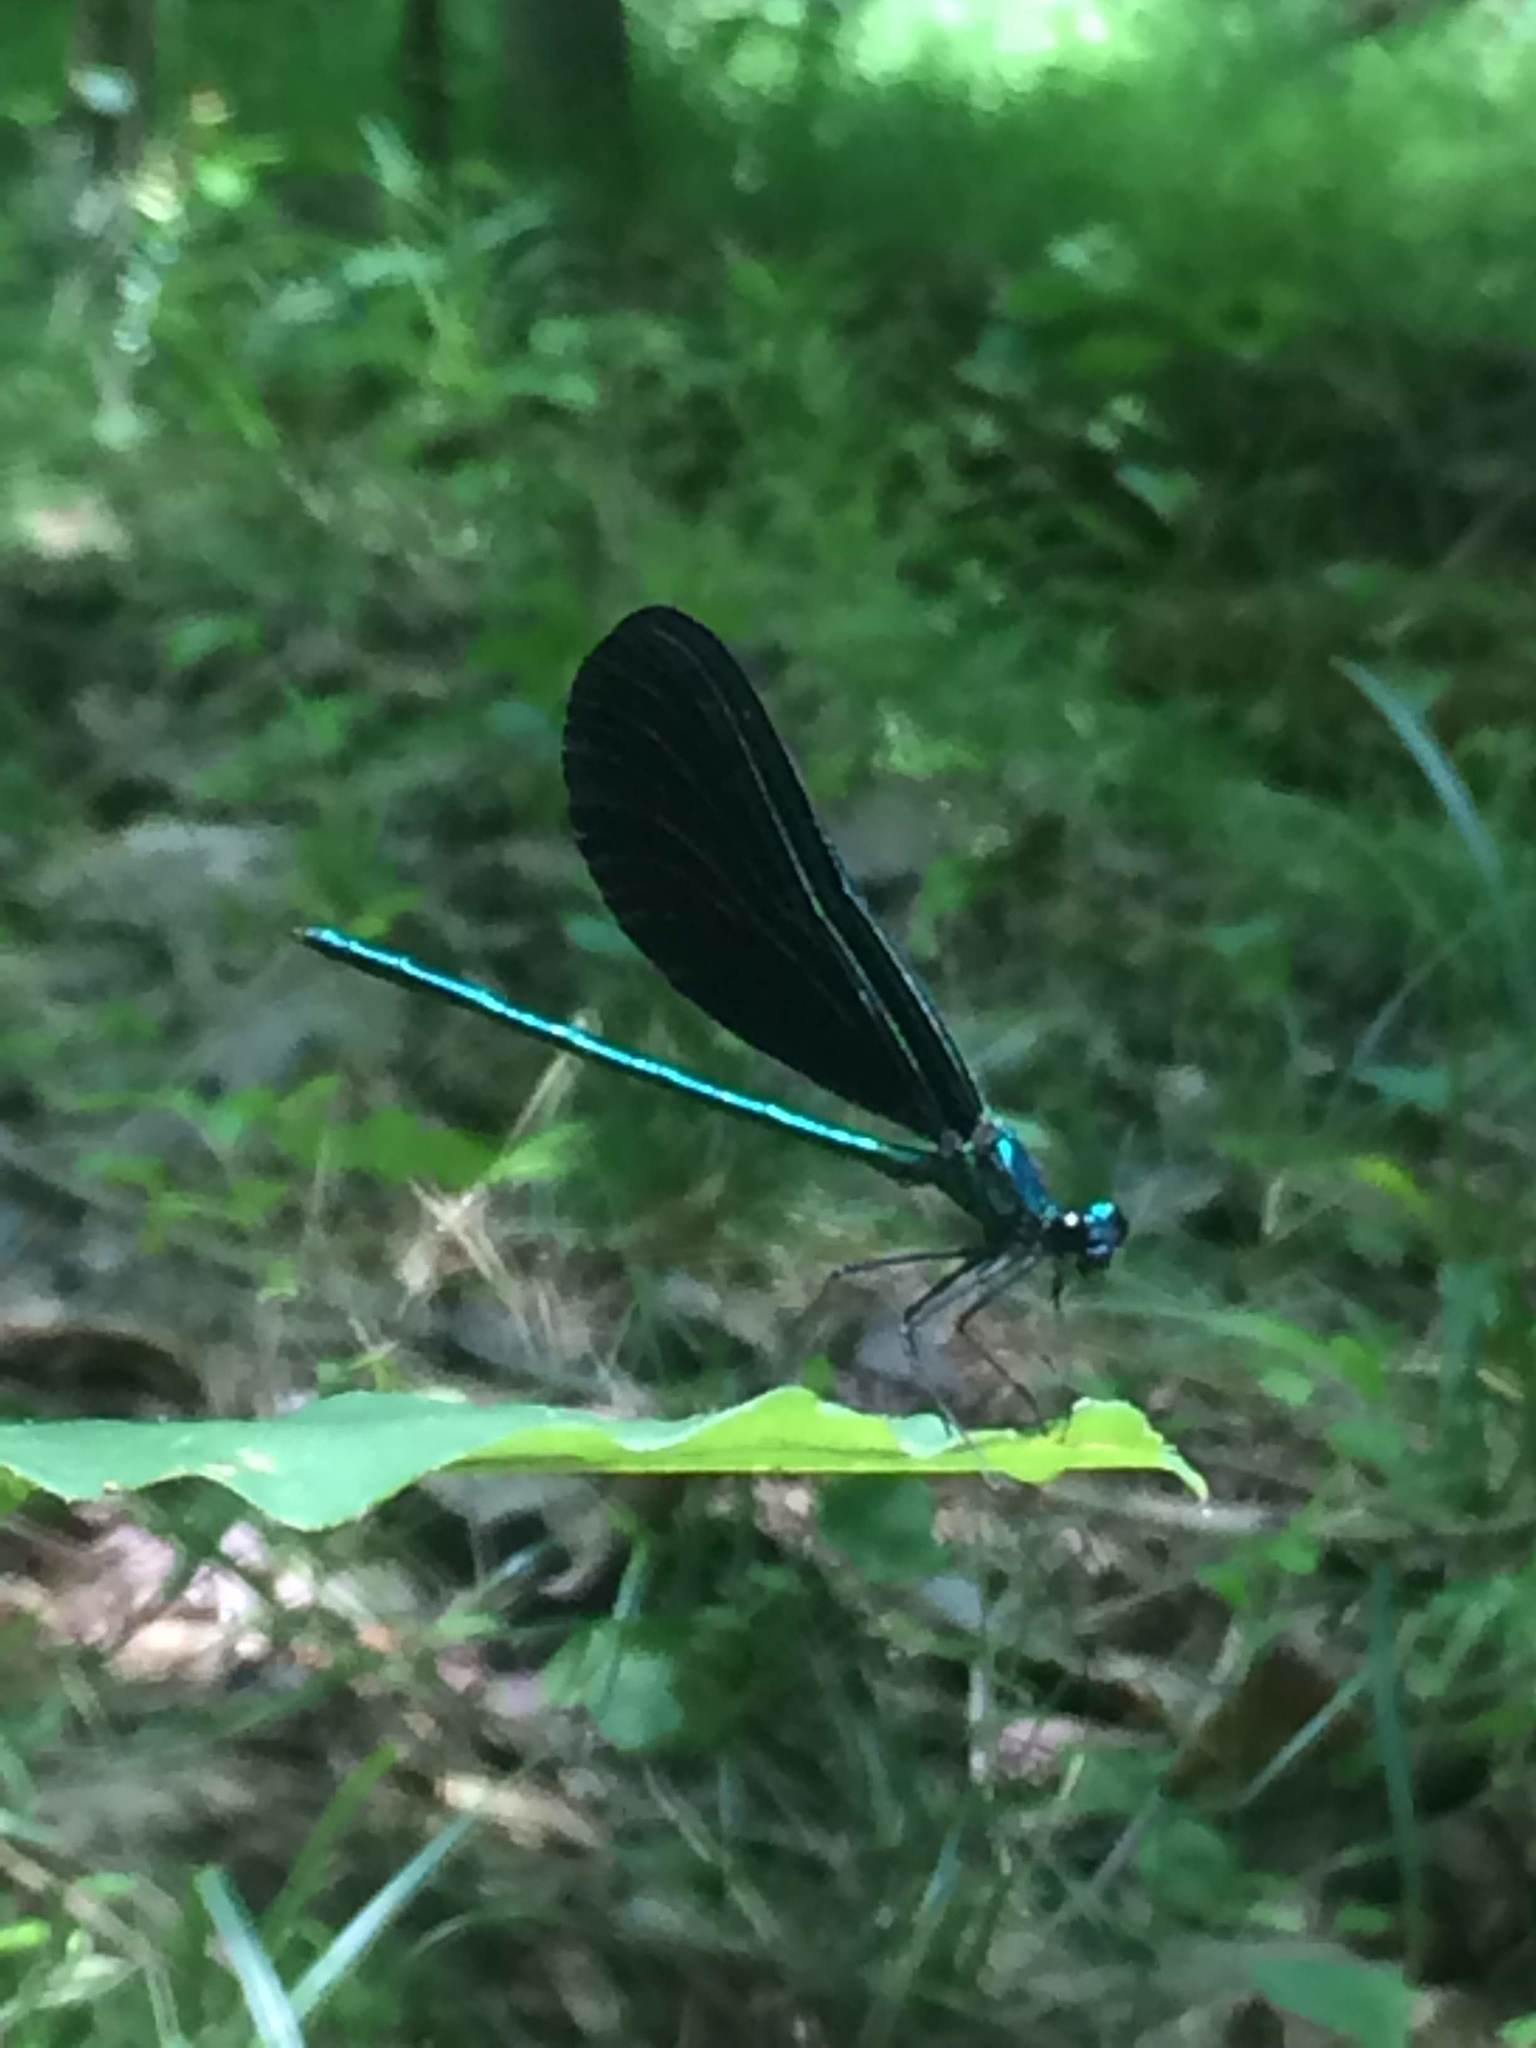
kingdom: Animalia
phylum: Arthropoda
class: Insecta
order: Odonata
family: Calopterygidae
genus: Calopteryx
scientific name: Calopteryx maculata
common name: Ebony jewelwing
